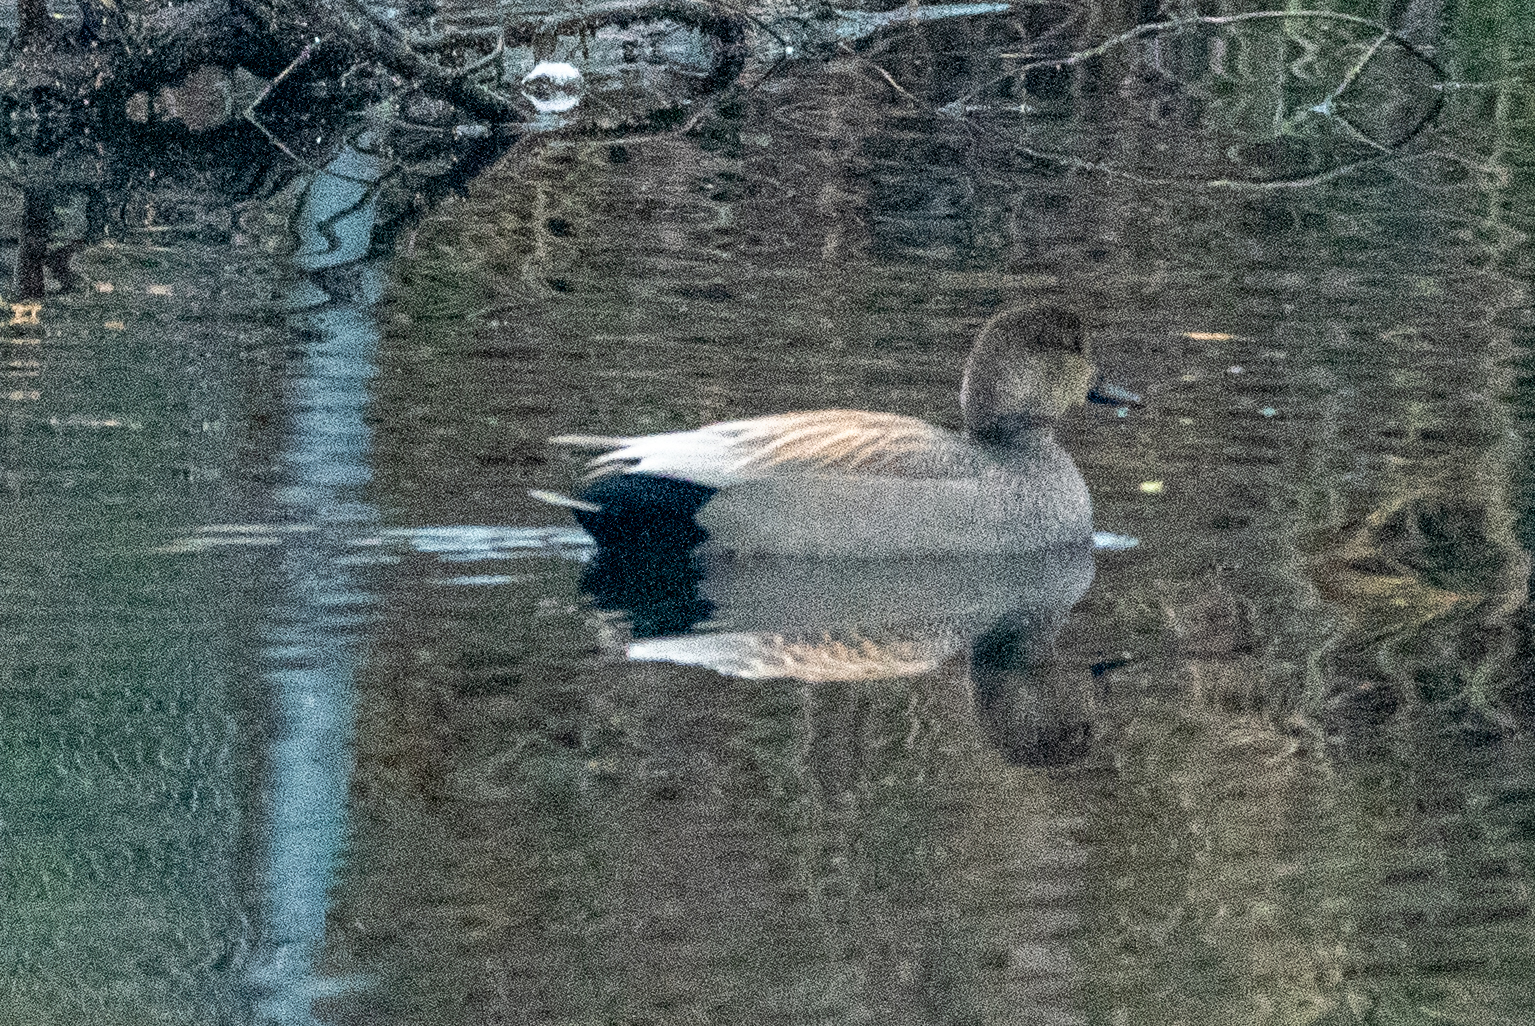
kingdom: Animalia
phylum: Chordata
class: Aves
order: Anseriformes
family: Anatidae
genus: Mareca
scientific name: Mareca strepera
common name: Gadwall
